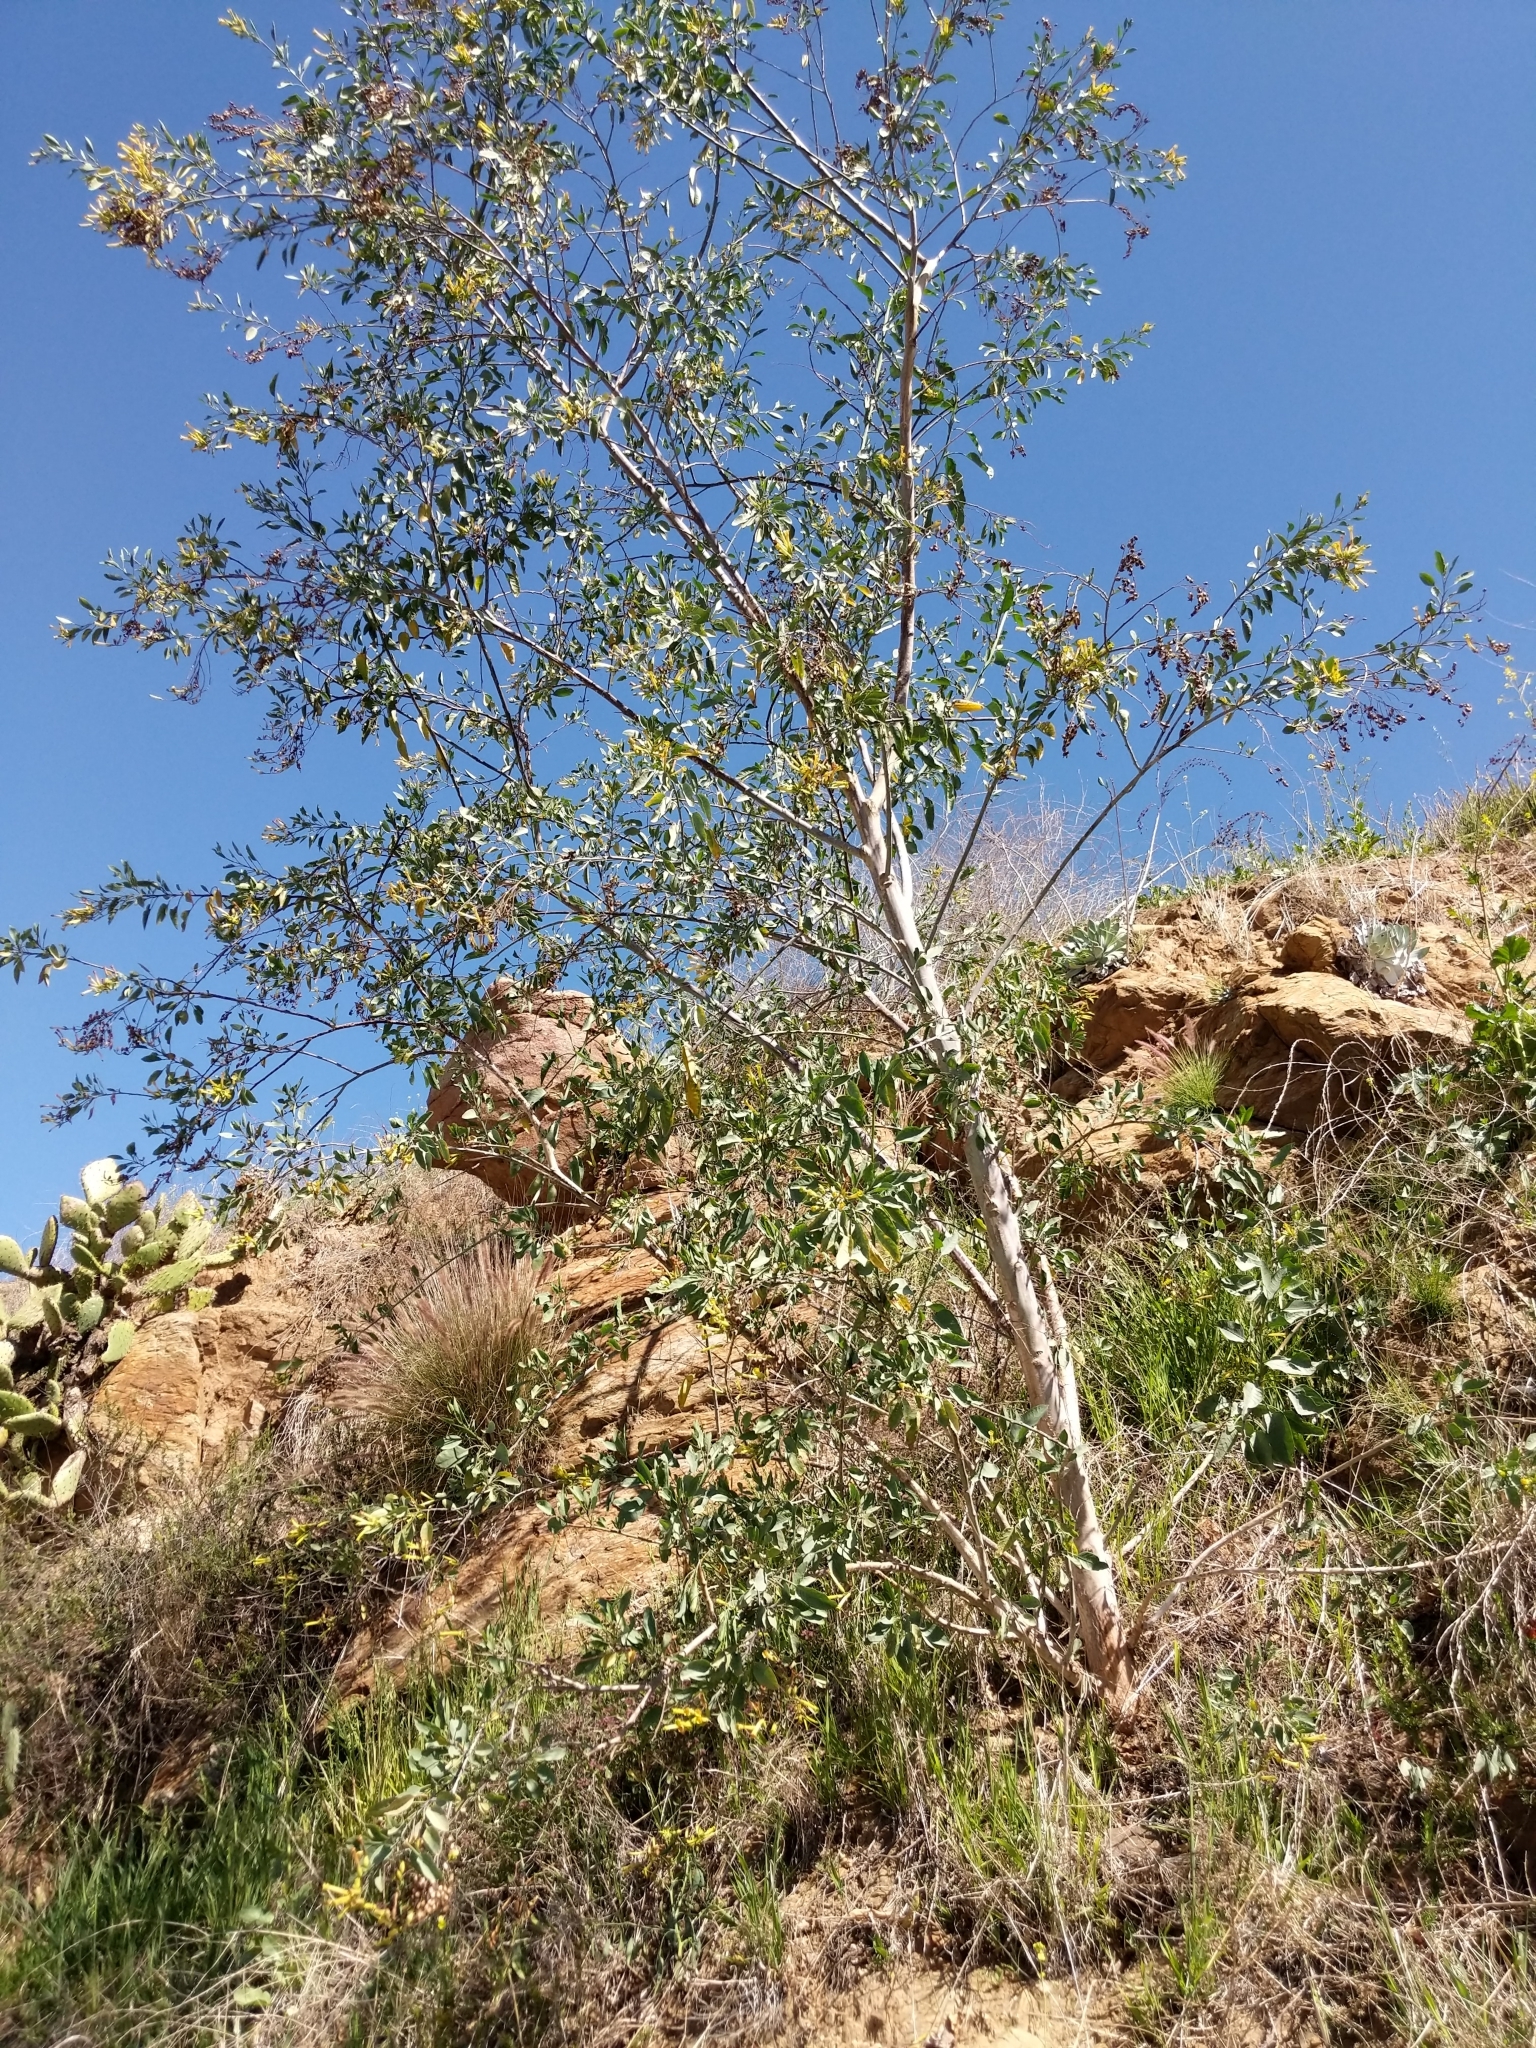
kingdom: Plantae
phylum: Tracheophyta
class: Magnoliopsida
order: Solanales
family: Solanaceae
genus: Nicotiana
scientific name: Nicotiana glauca
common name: Tree tobacco
